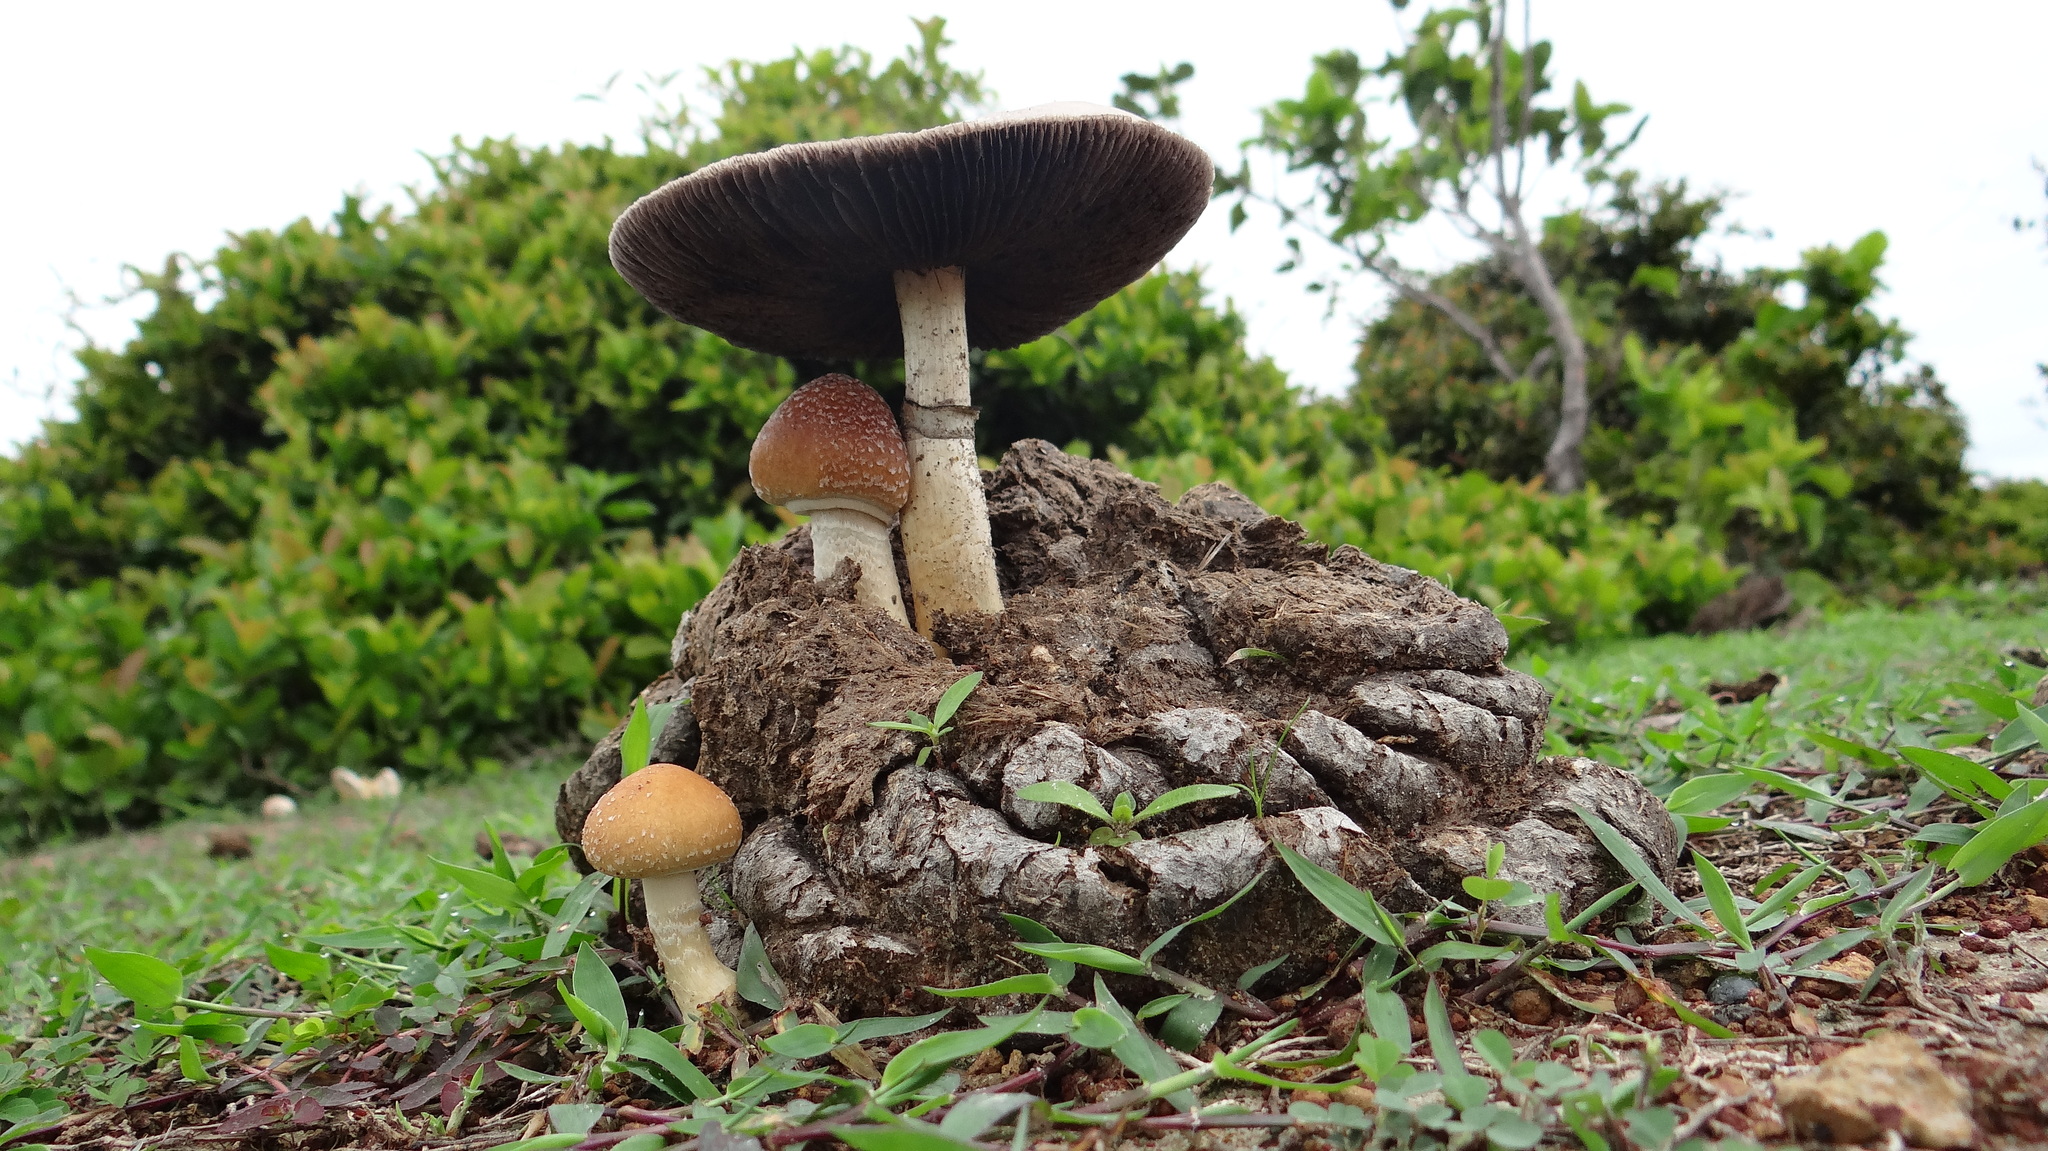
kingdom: Fungi
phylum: Basidiomycota
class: Agaricomycetes
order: Agaricales
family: Hymenogastraceae
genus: Psilocybe
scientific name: Psilocybe cubensis
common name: Golden brownie
